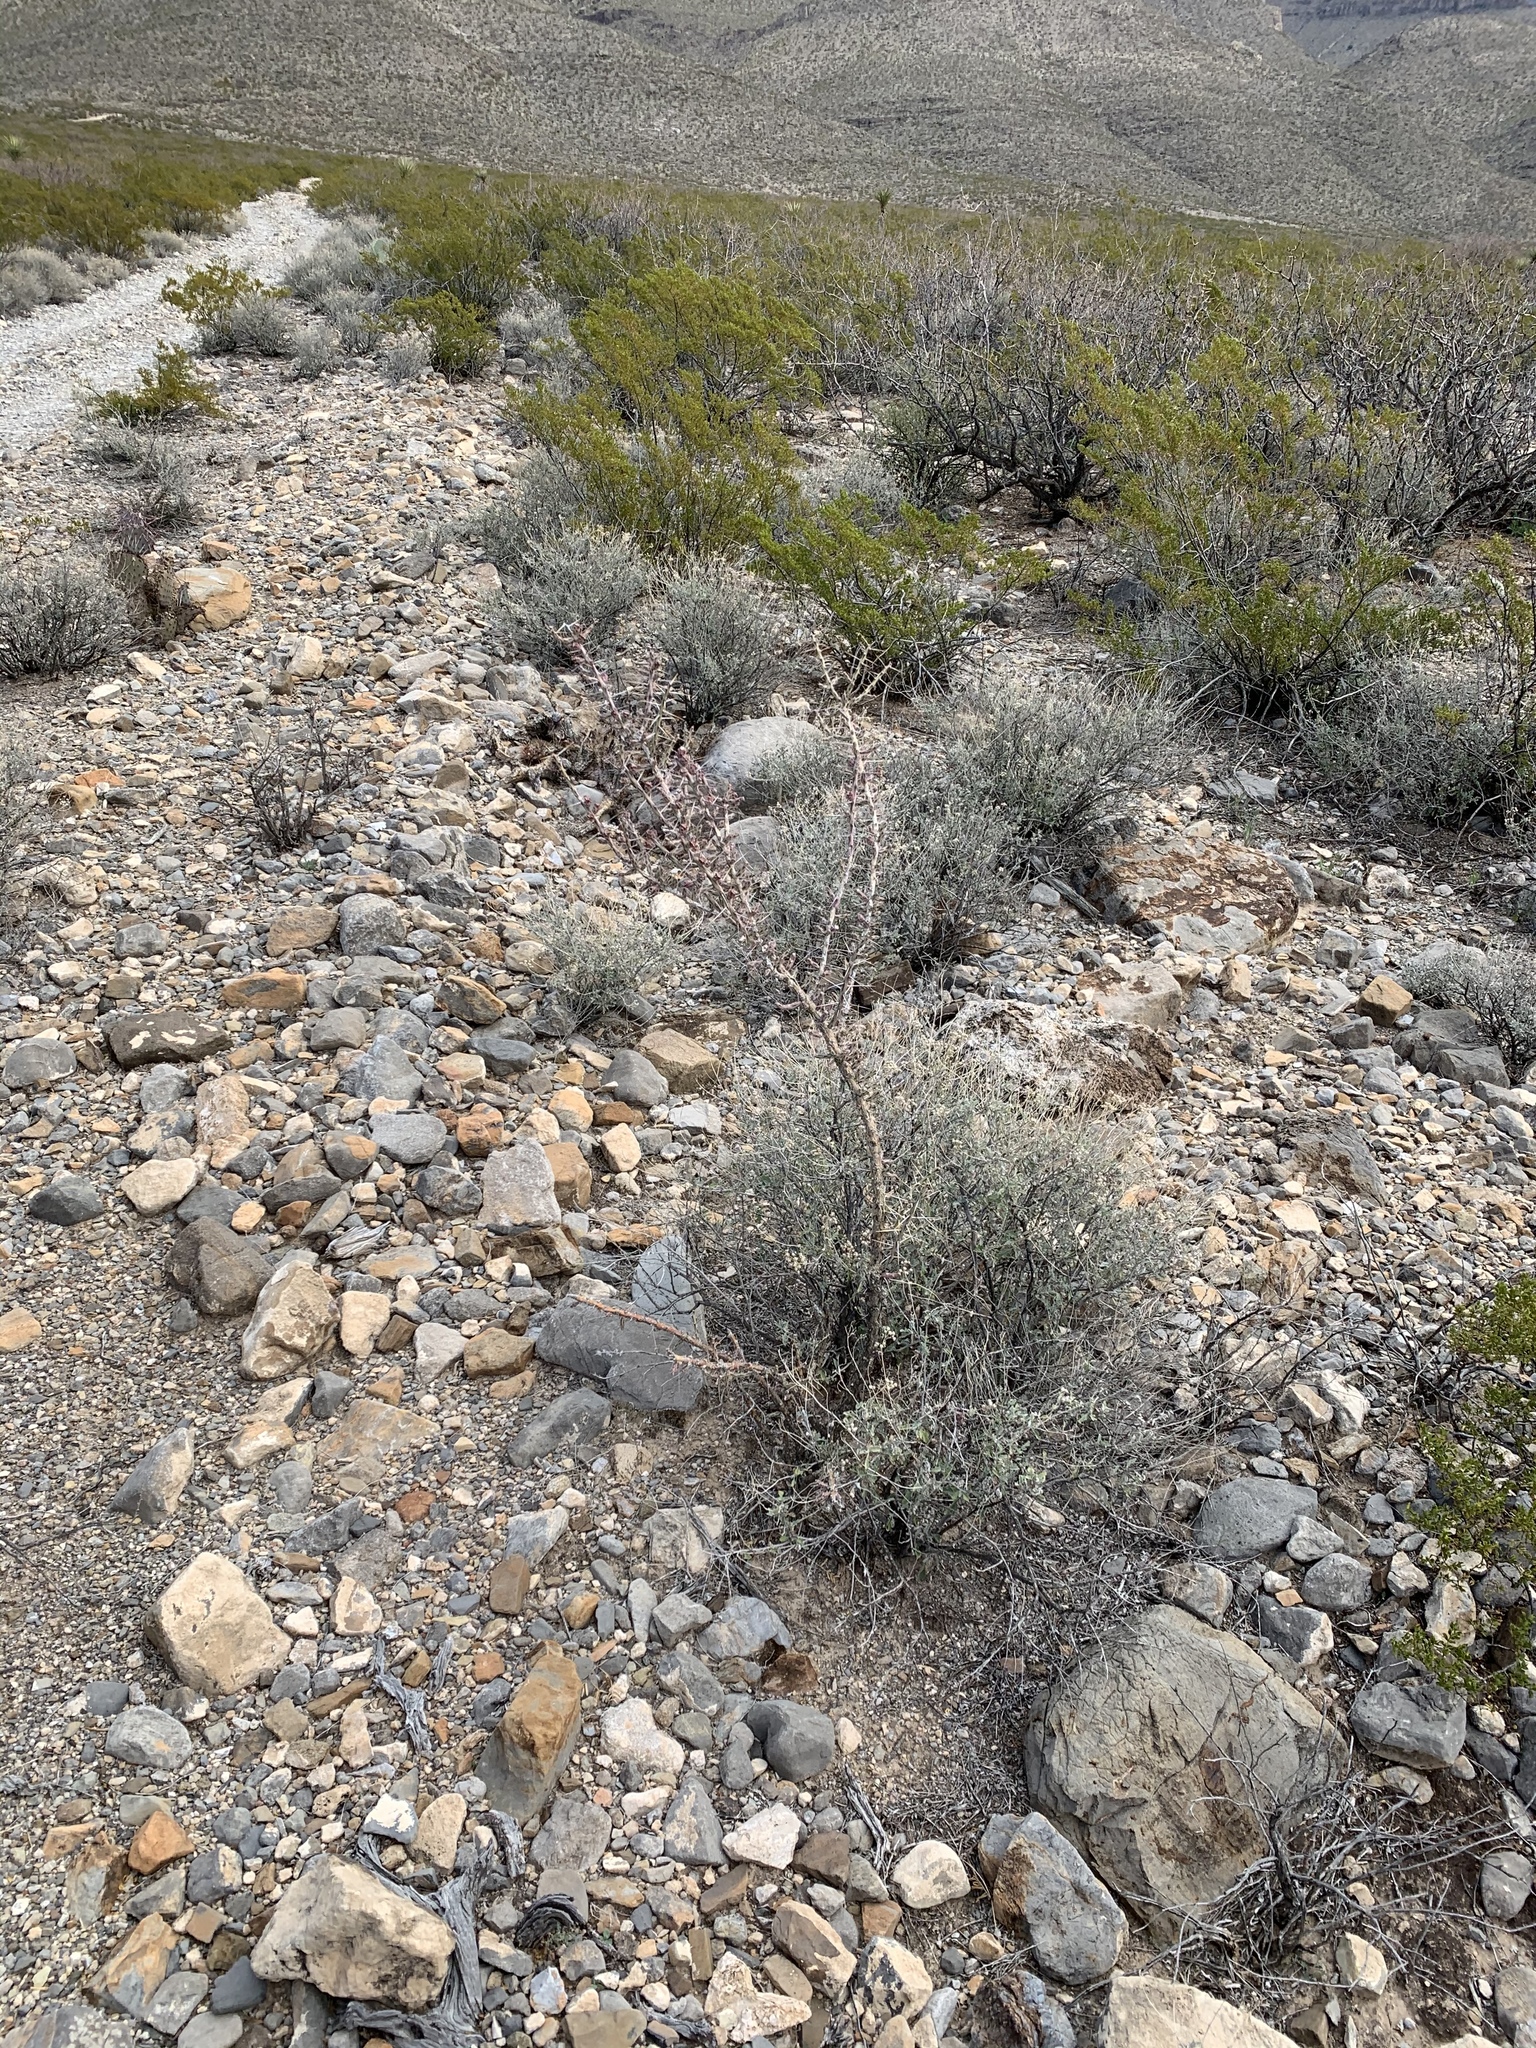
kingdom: Plantae
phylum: Tracheophyta
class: Magnoliopsida
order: Caryophyllales
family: Cactaceae
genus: Cylindropuntia
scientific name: Cylindropuntia leptocaulis
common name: Christmas cactus
